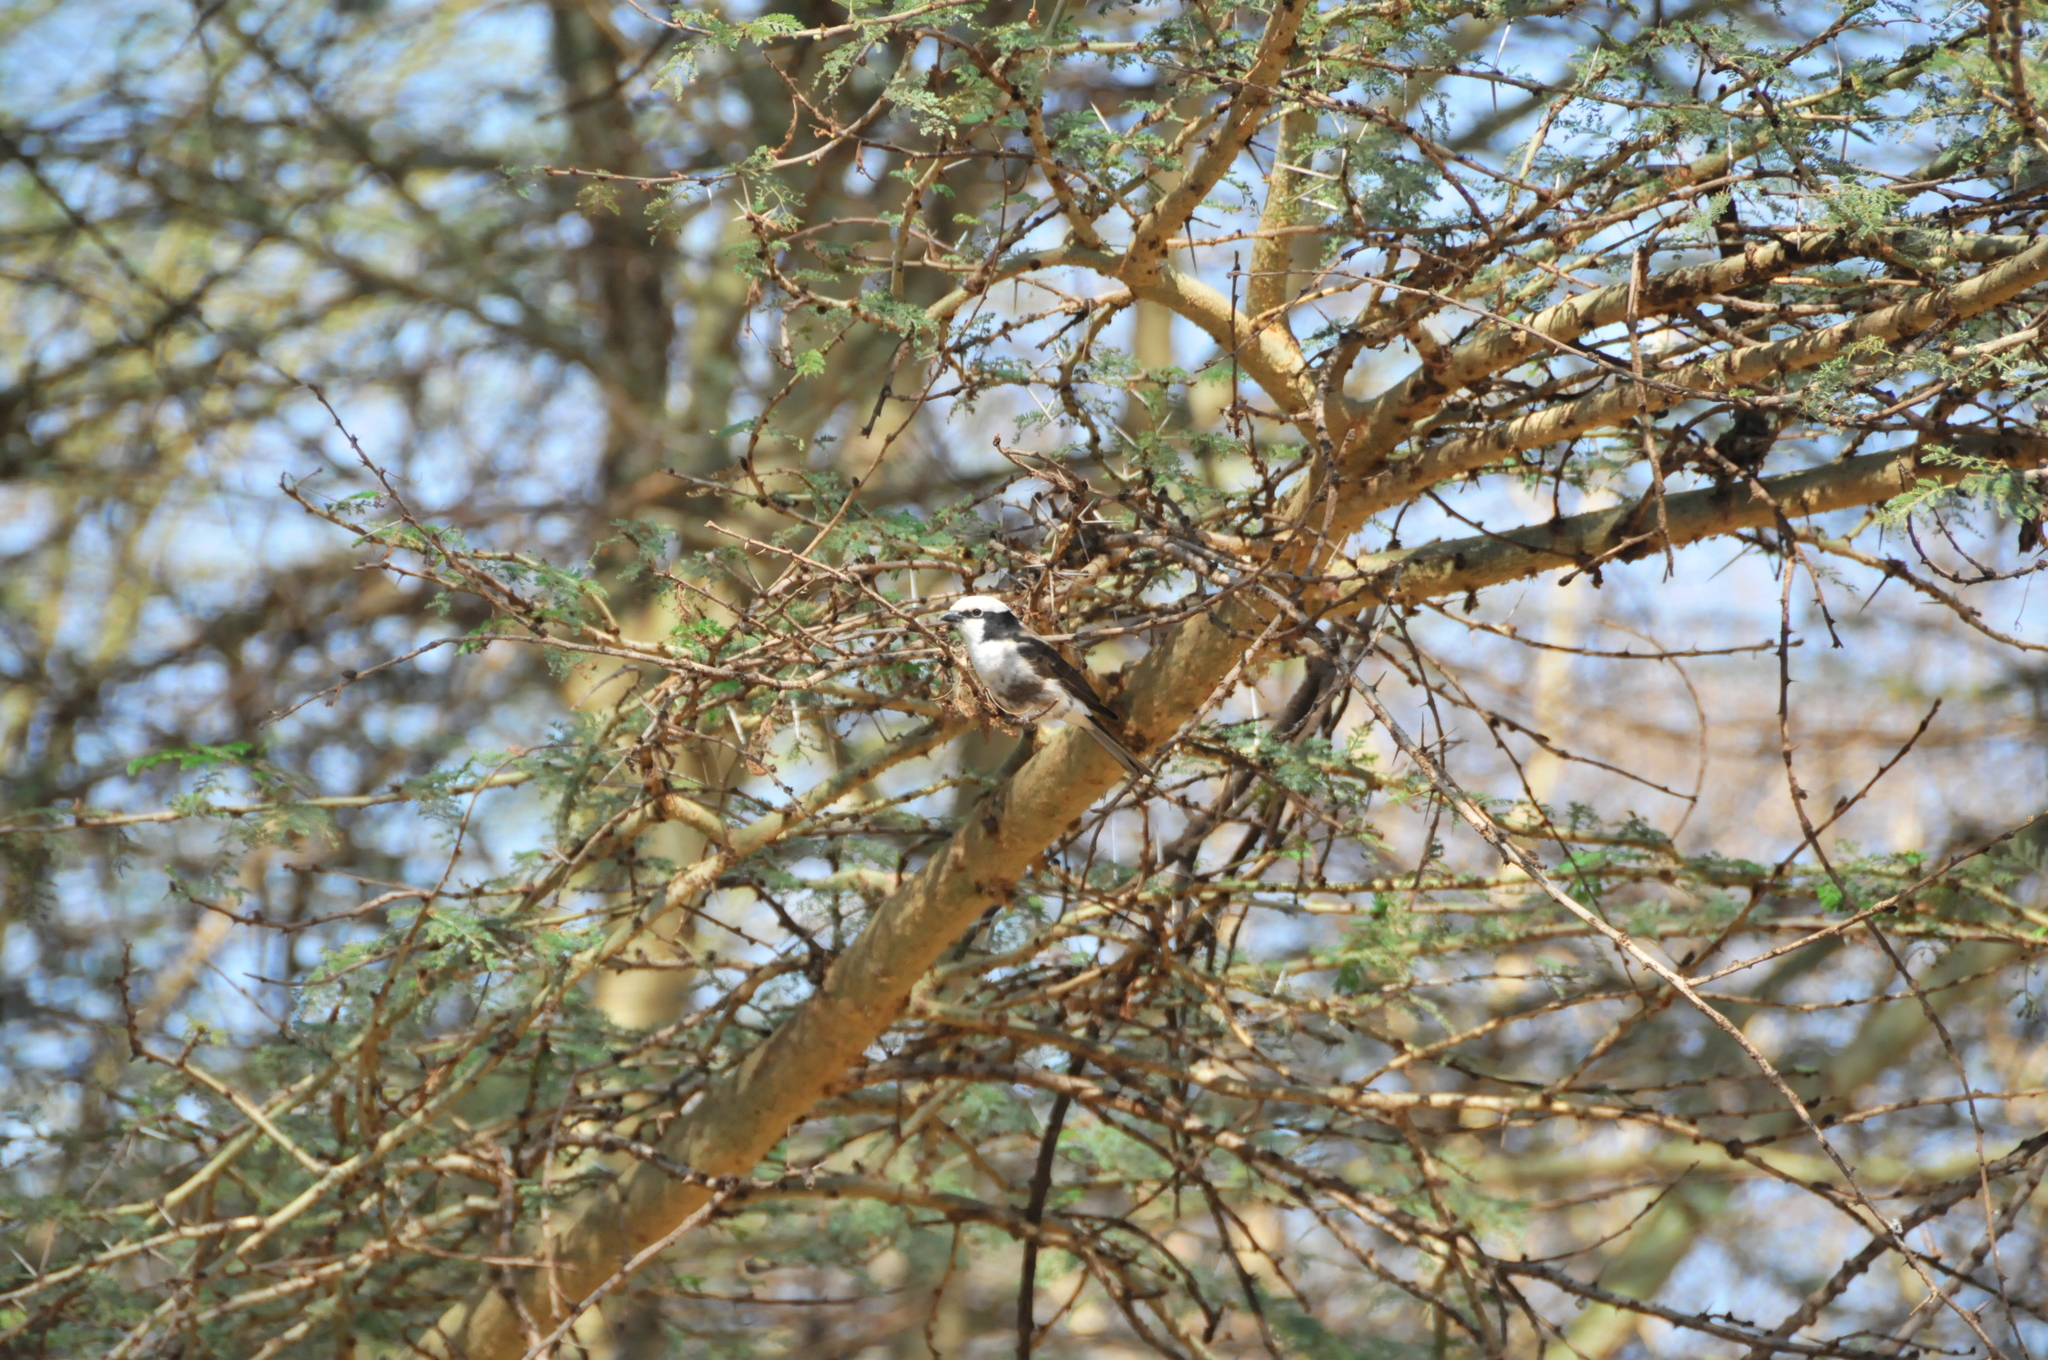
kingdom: Animalia
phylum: Chordata
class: Aves
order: Passeriformes
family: Laniidae
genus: Eurocephalus
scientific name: Eurocephalus ruppelli
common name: Northern white-crowned shrike
